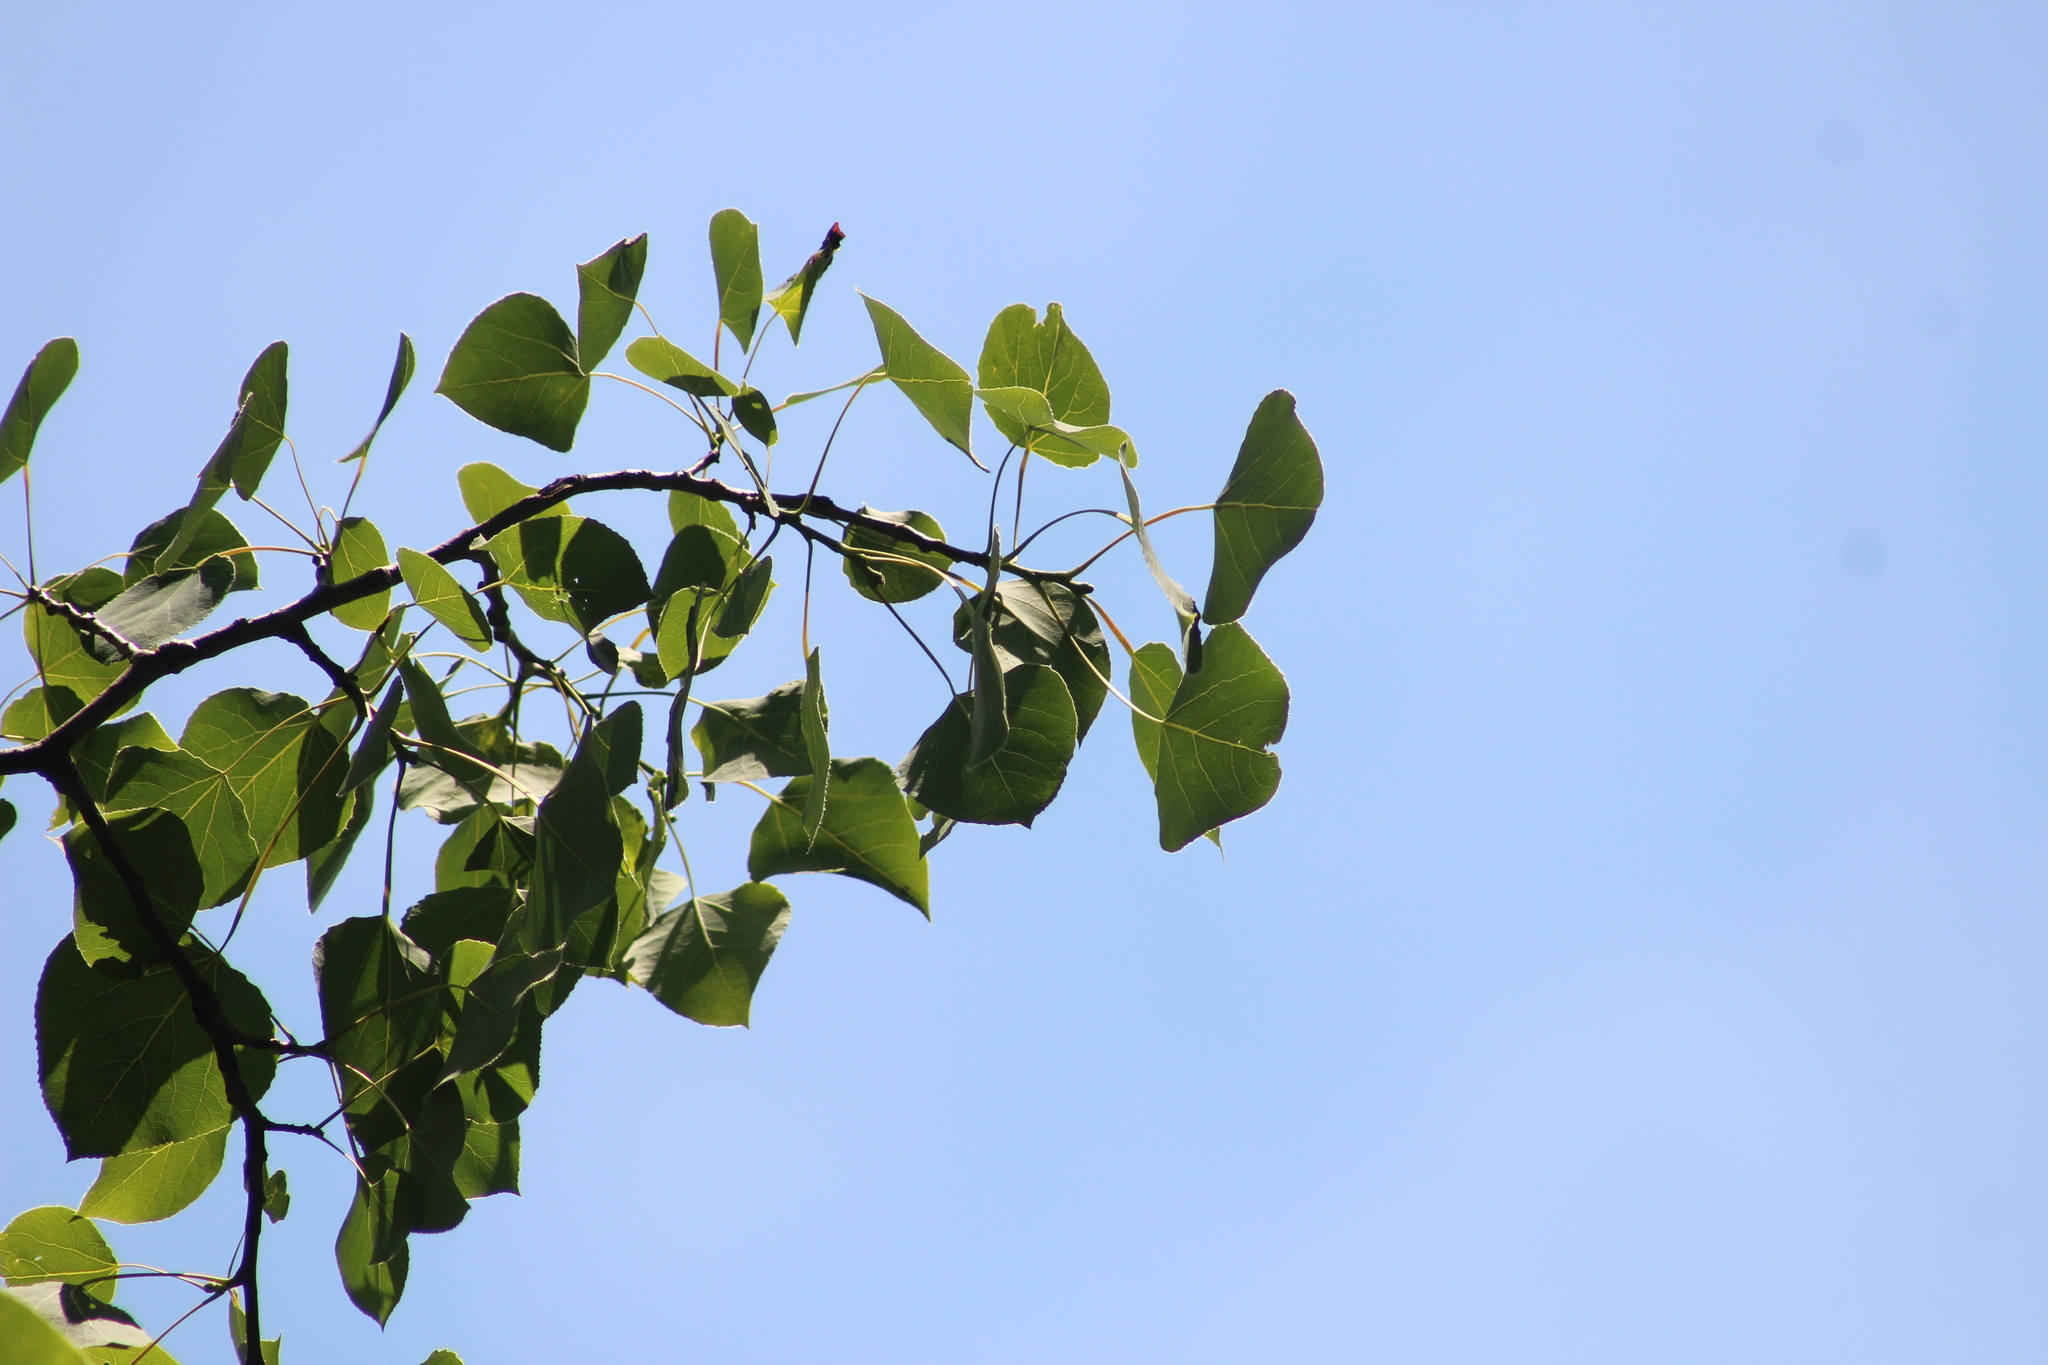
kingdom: Plantae
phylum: Tracheophyta
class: Magnoliopsida
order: Malpighiales
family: Salicaceae
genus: Populus
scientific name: Populus tremuloides
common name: Quaking aspen
